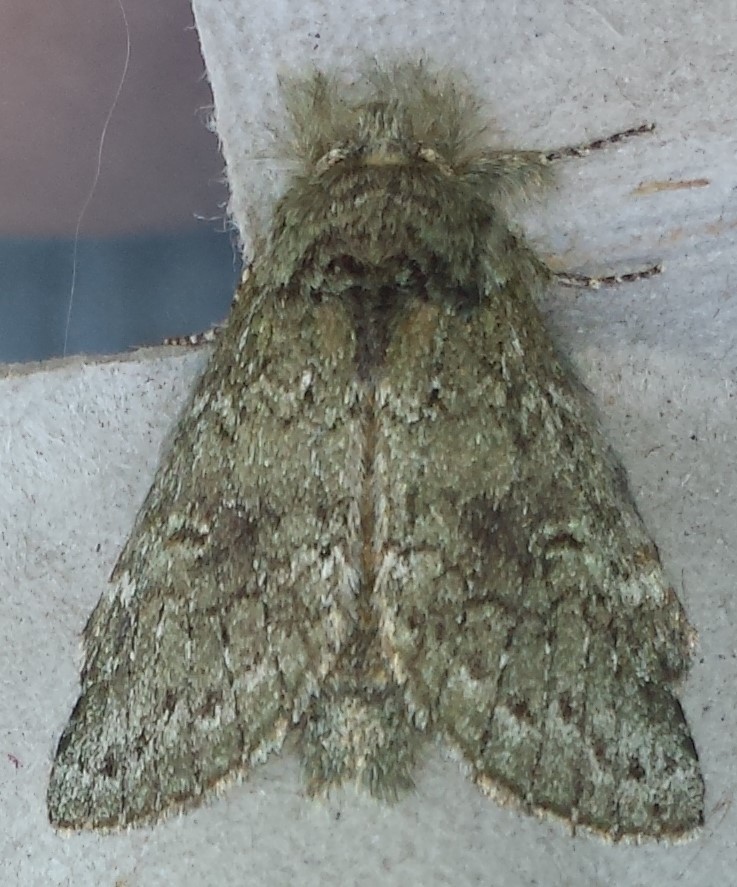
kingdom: Animalia
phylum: Arthropoda
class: Insecta
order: Lepidoptera
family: Notodontidae
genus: Disphragis
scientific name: Disphragis Cecrita guttivitta
